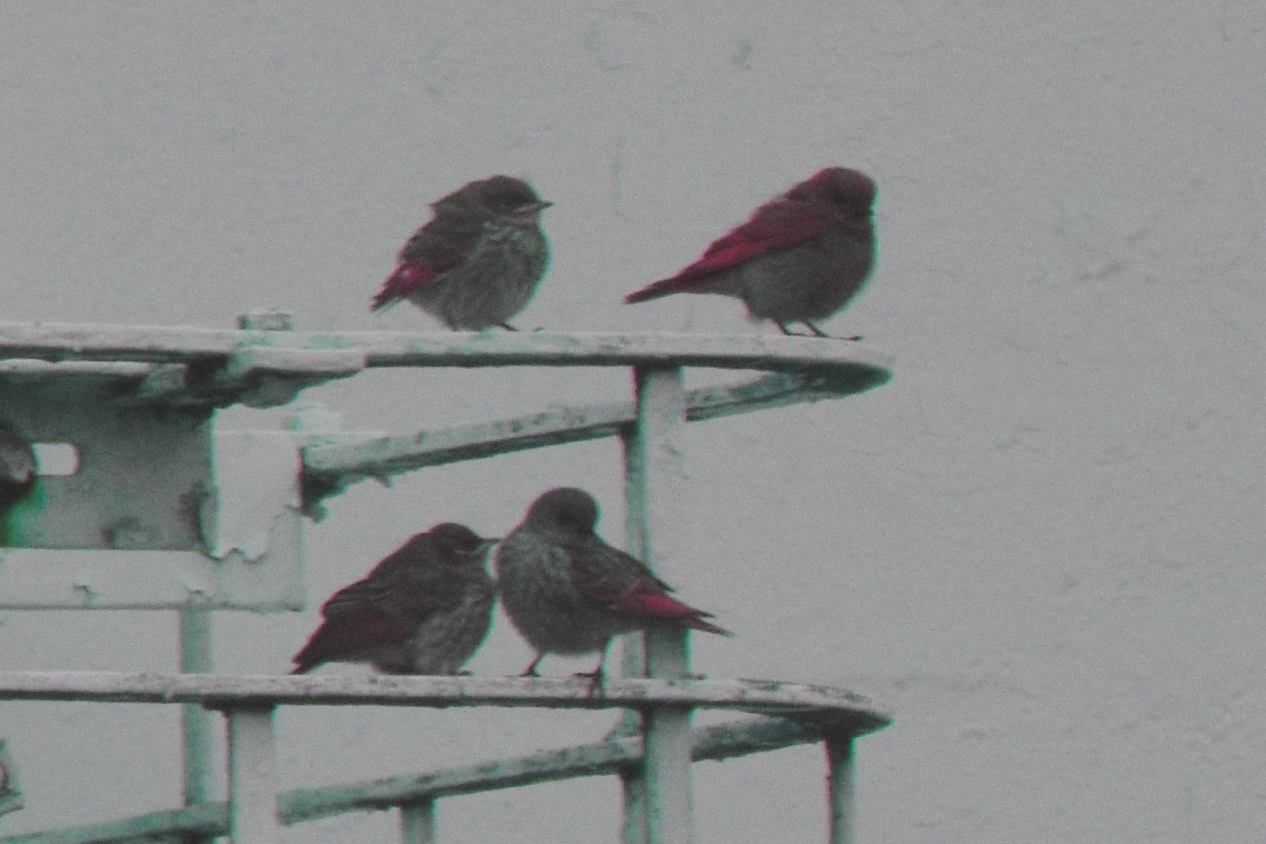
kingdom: Animalia
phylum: Chordata
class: Aves
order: Passeriformes
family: Turdidae
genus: Sialia
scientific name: Sialia mexicana
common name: Western bluebird
